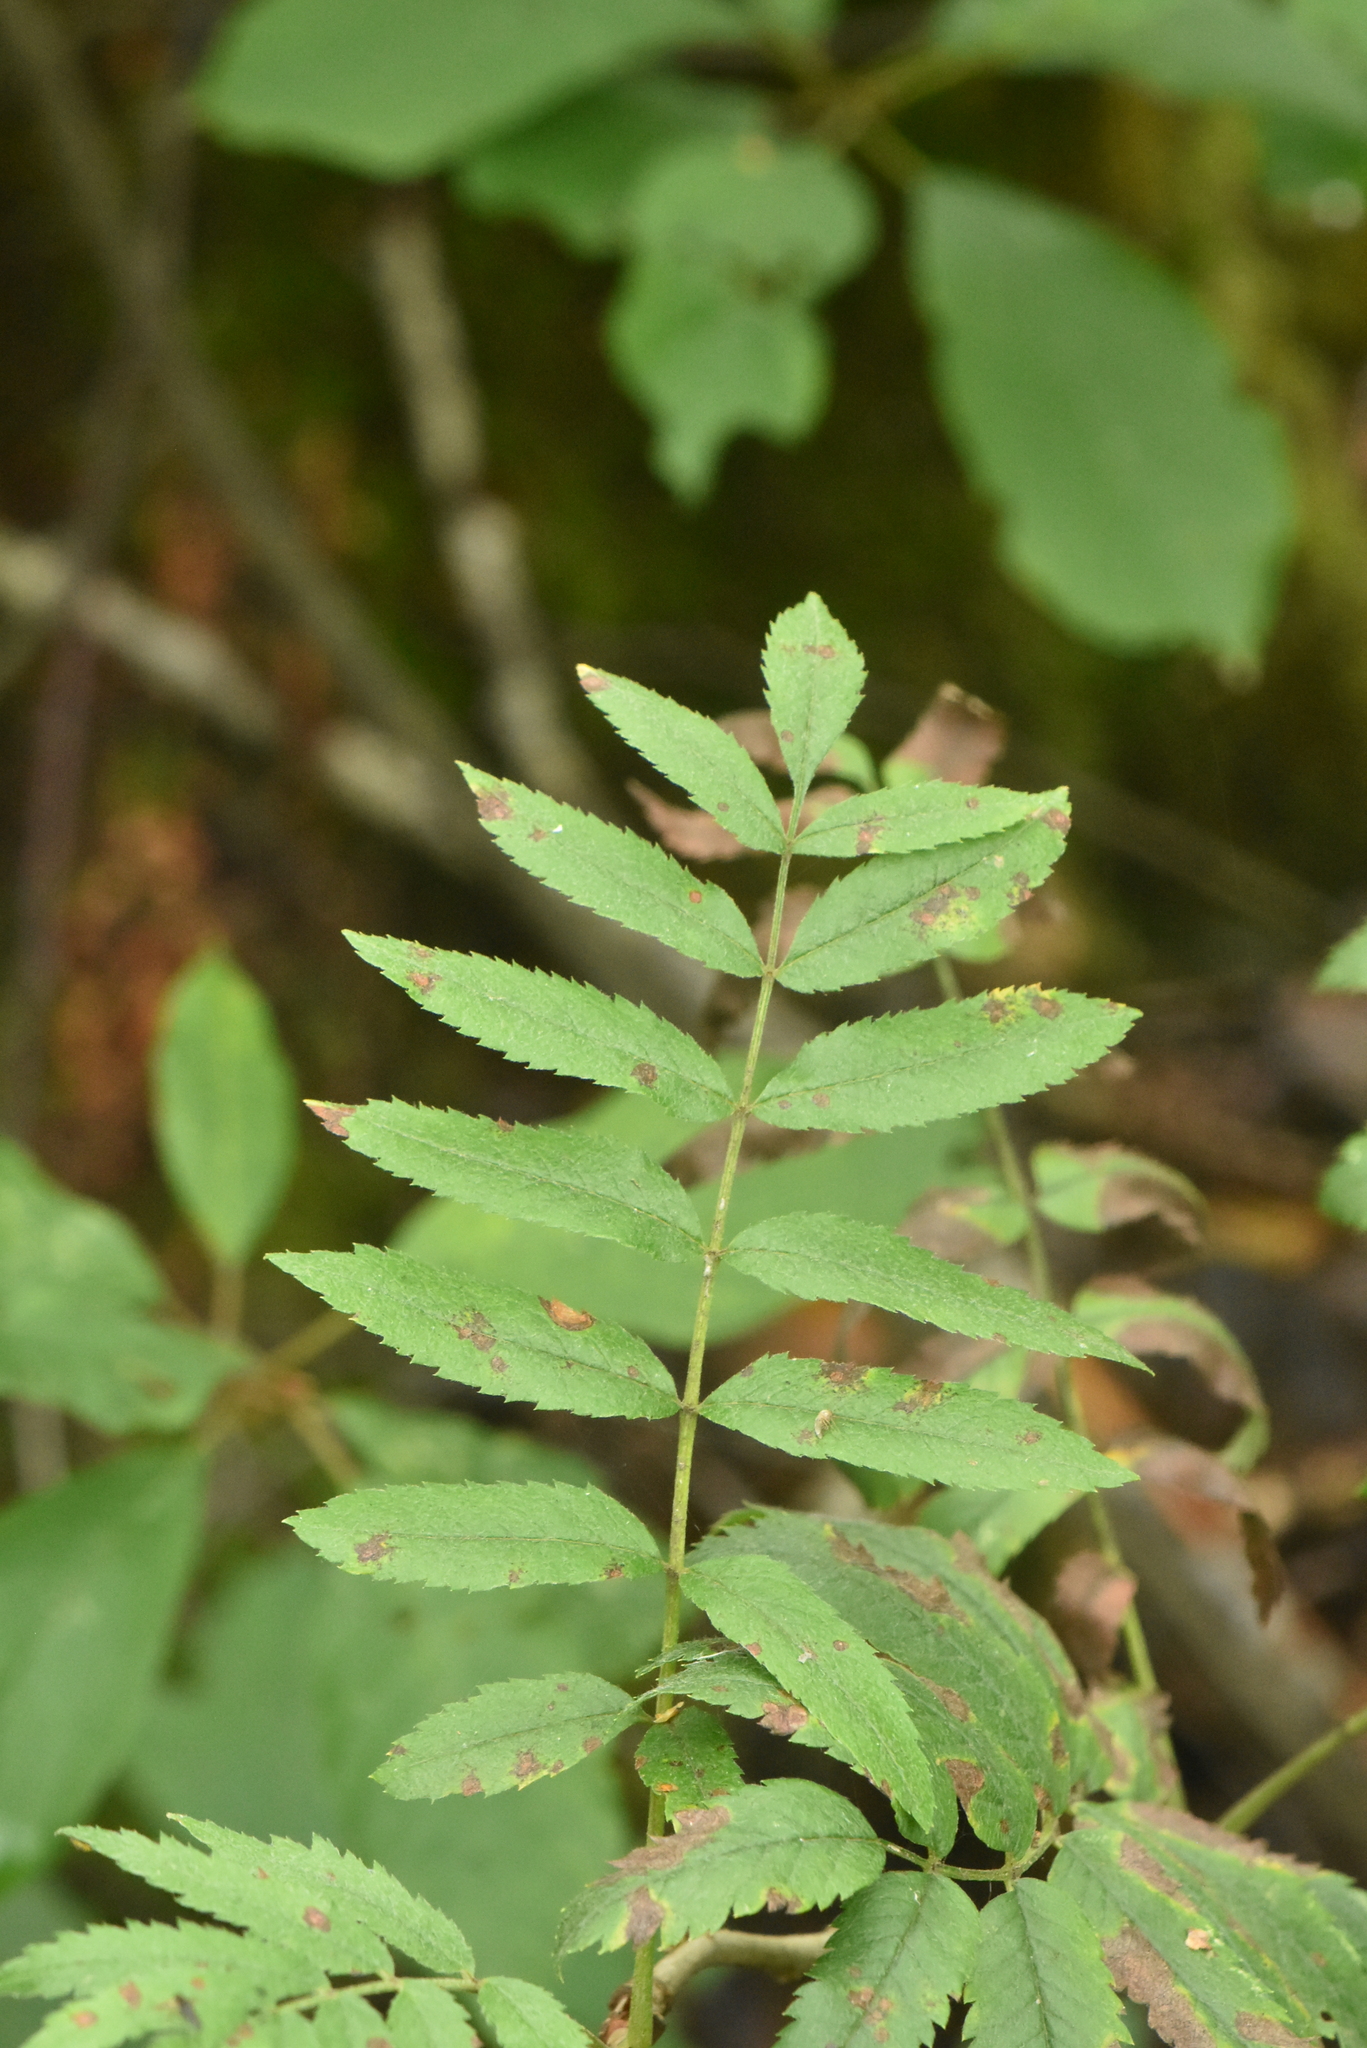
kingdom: Plantae
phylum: Tracheophyta
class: Magnoliopsida
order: Rosales
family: Rosaceae
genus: Sorbus
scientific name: Sorbus aucuparia
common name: Rowan
